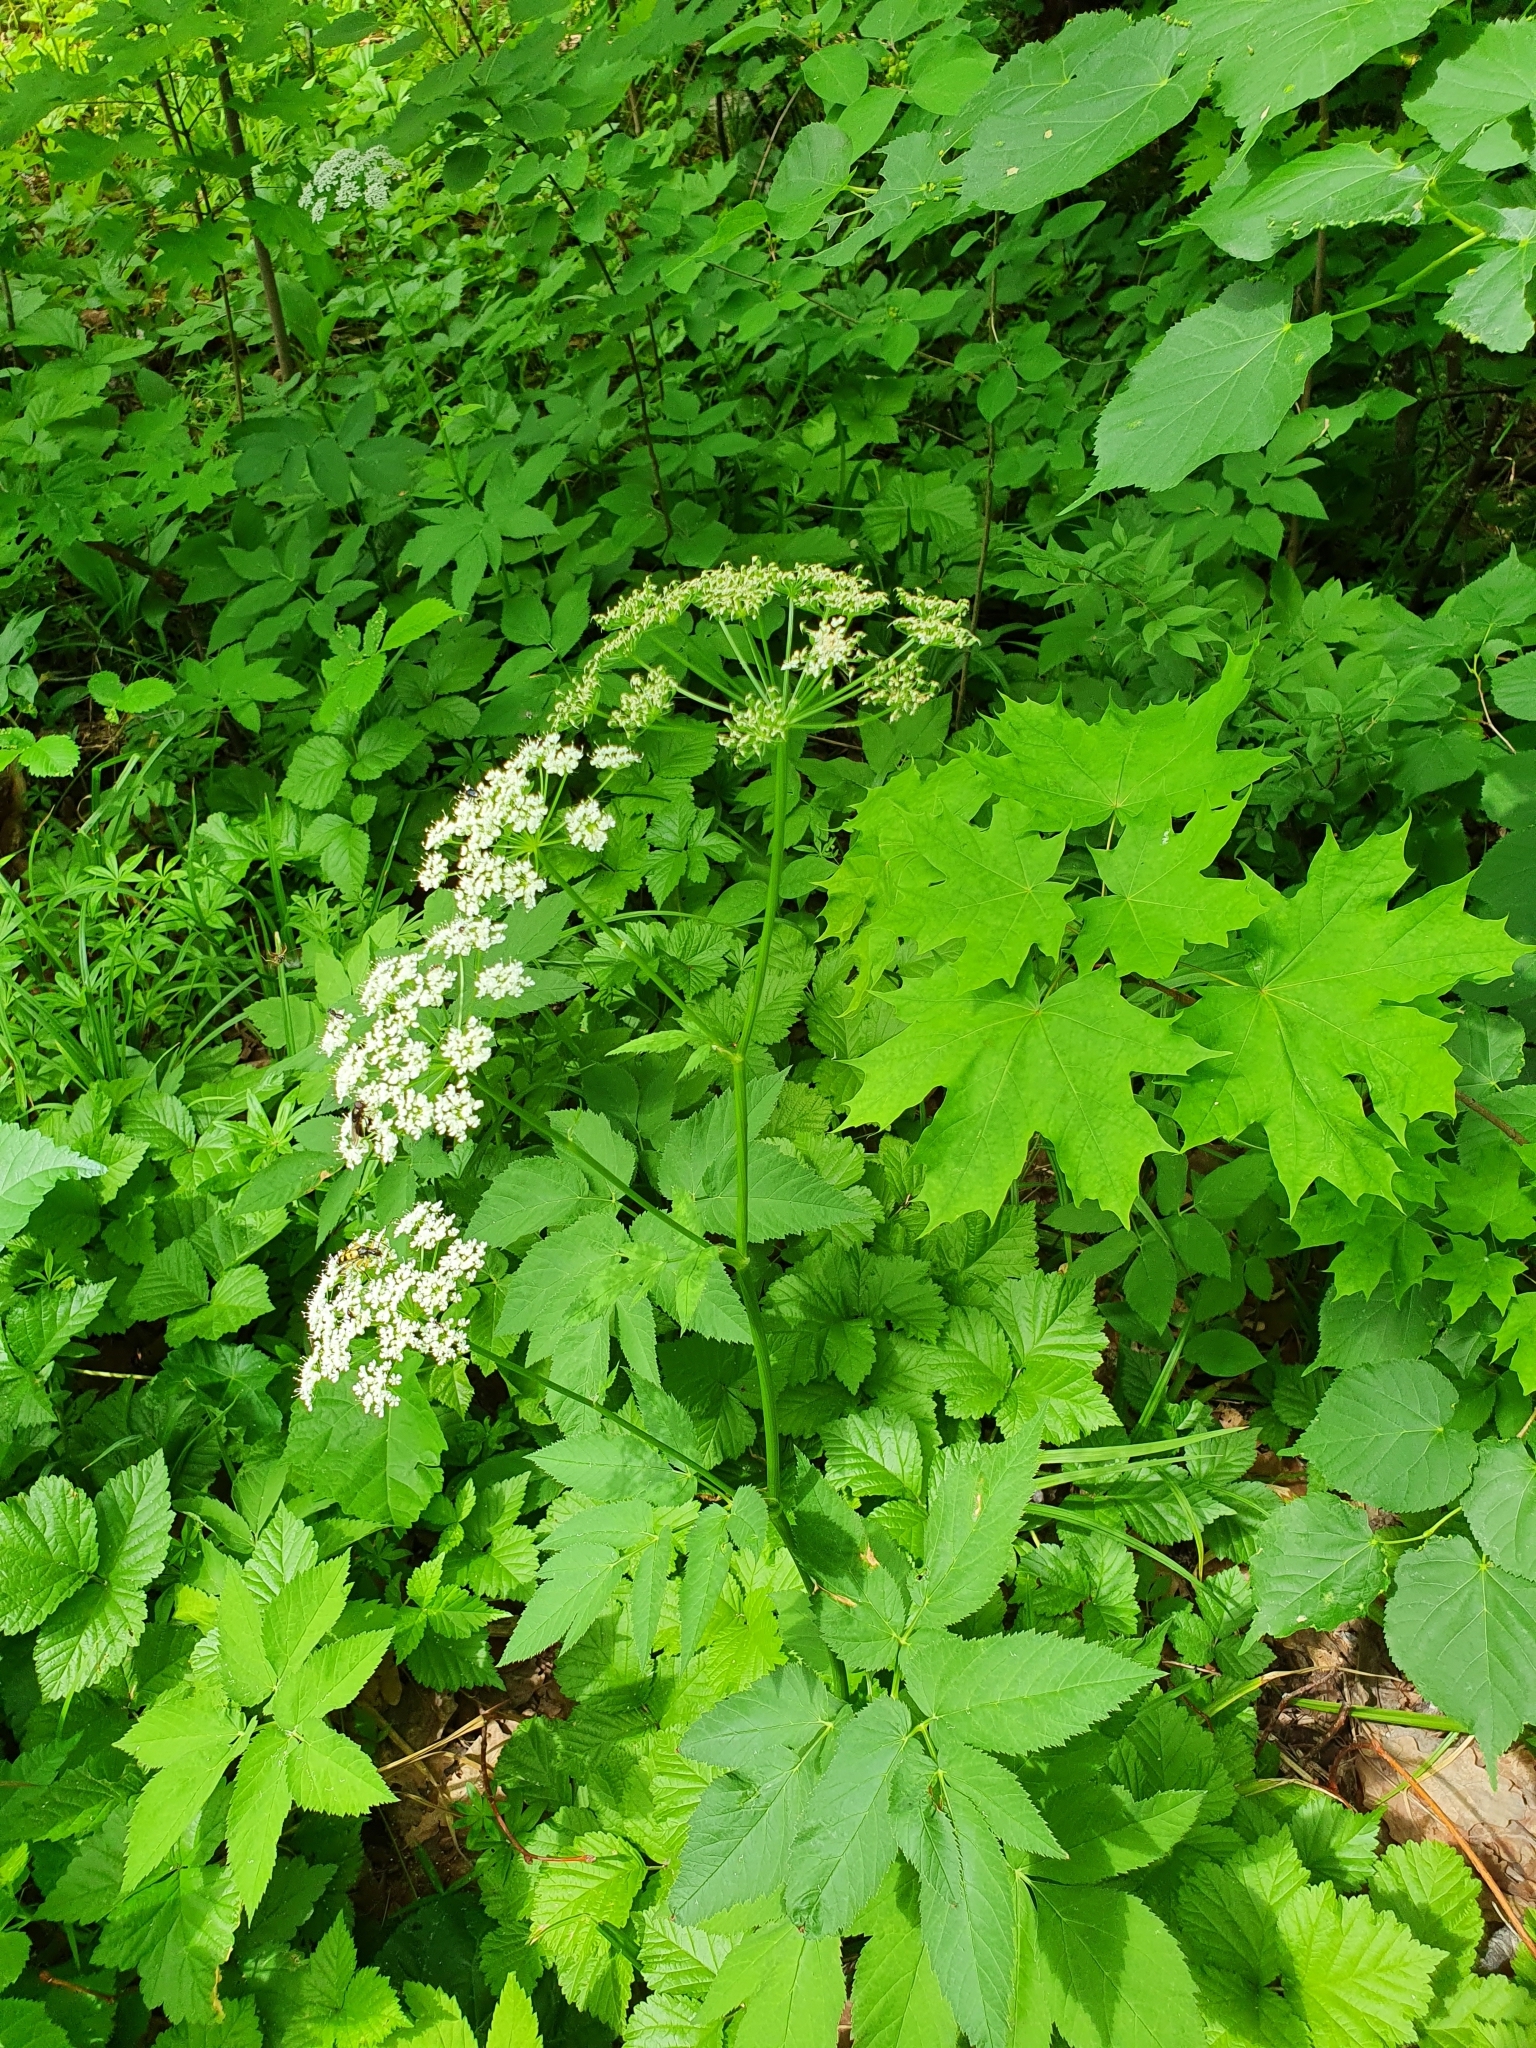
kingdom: Plantae
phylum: Tracheophyta
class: Magnoliopsida
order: Apiales
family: Apiaceae
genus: Aegopodium
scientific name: Aegopodium podagraria
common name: Ground-elder
